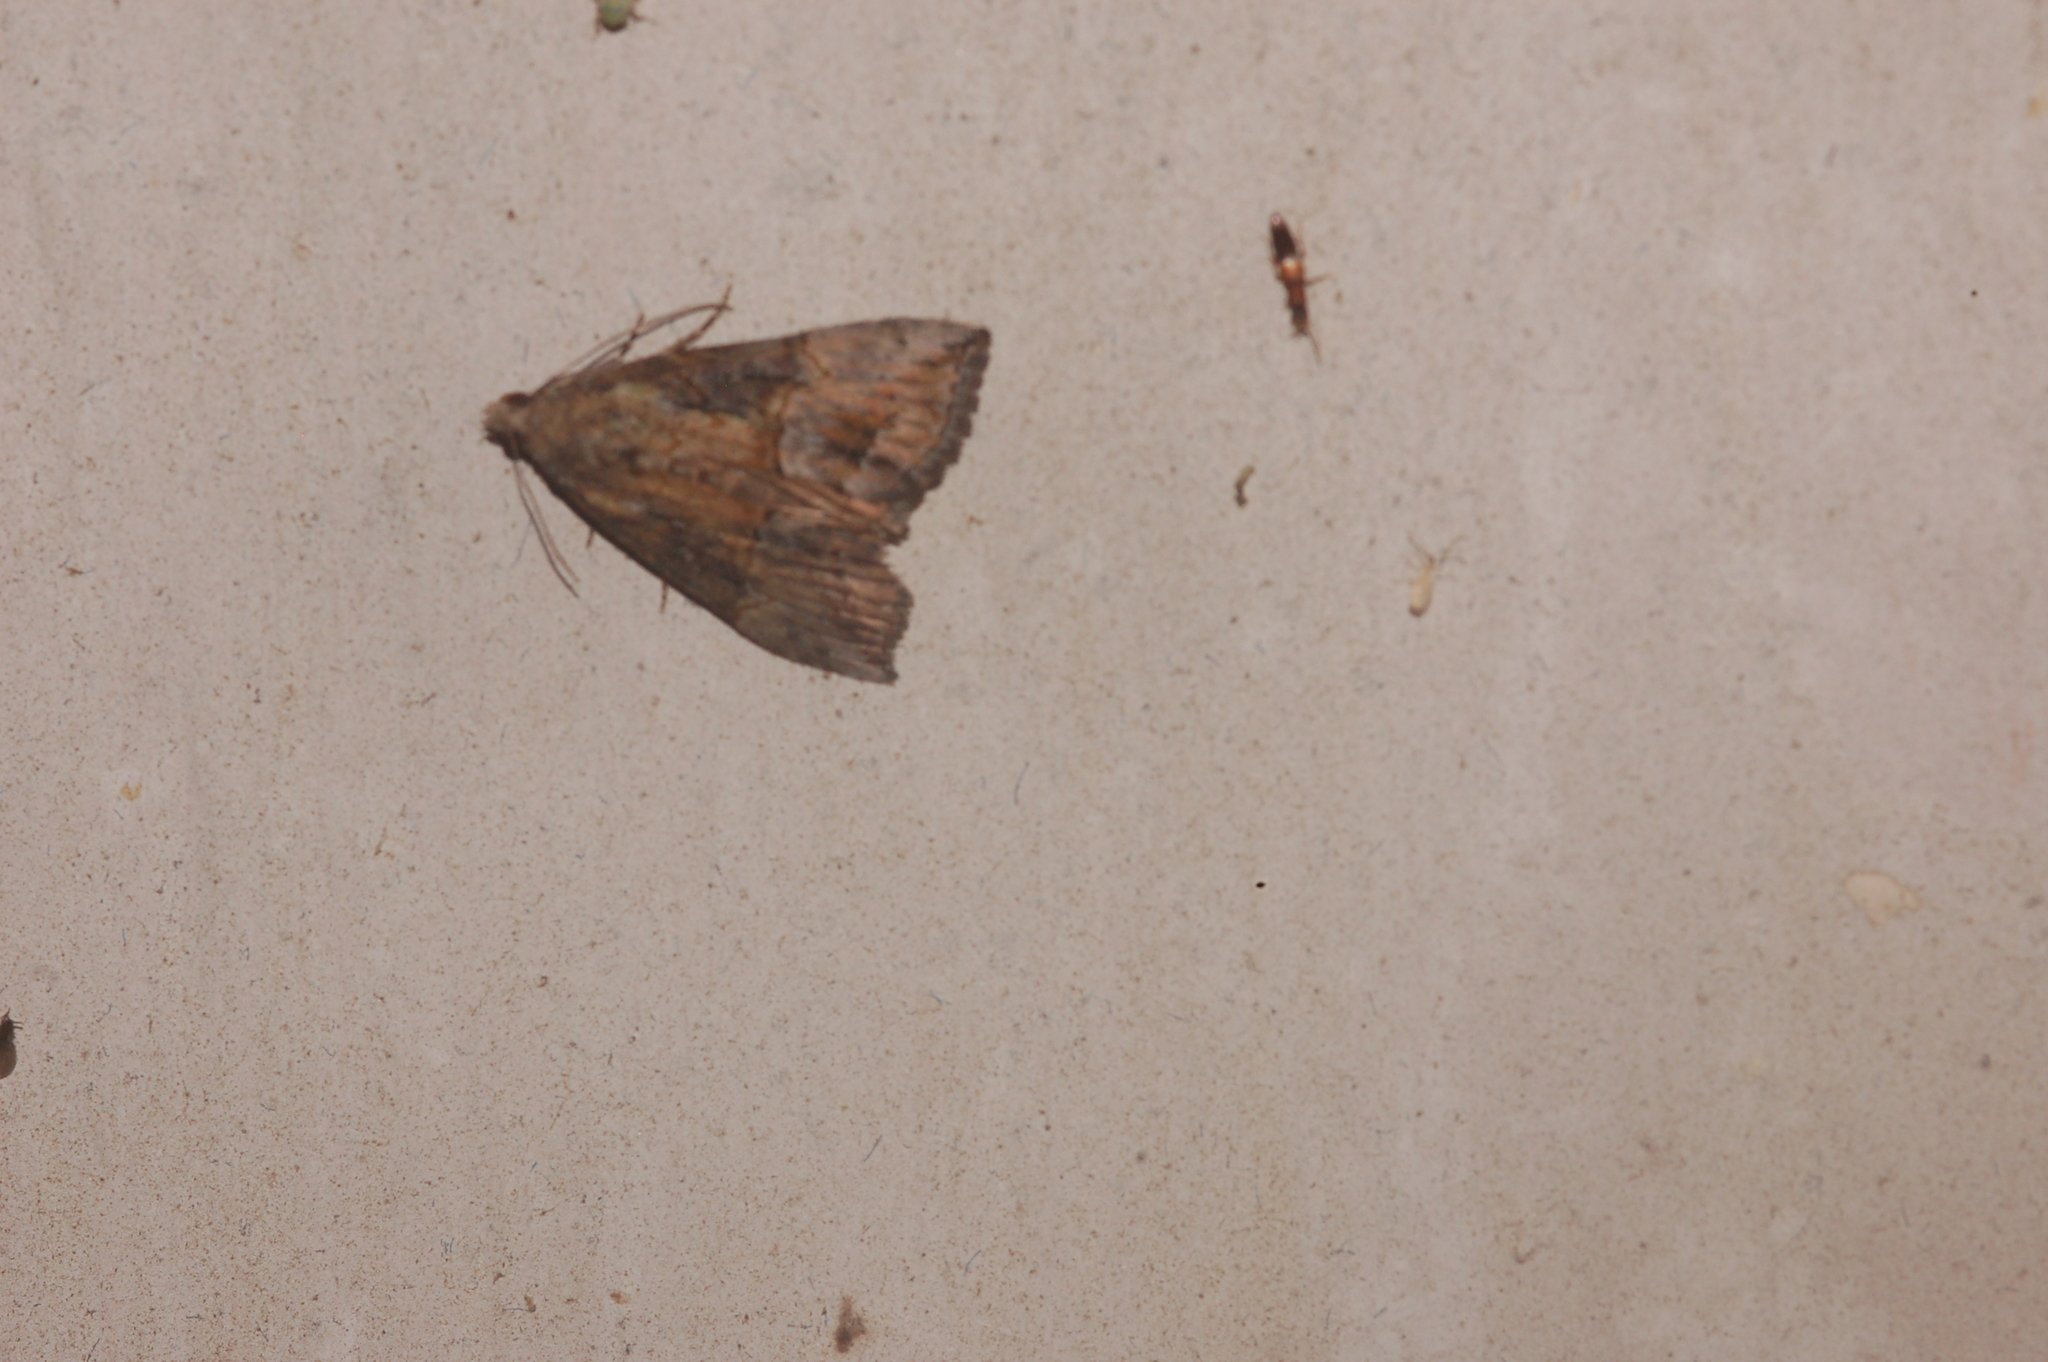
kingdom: Animalia
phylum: Arthropoda
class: Insecta
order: Lepidoptera
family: Erebidae
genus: Hypena
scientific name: Hypena scabra
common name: Green cloverworm
